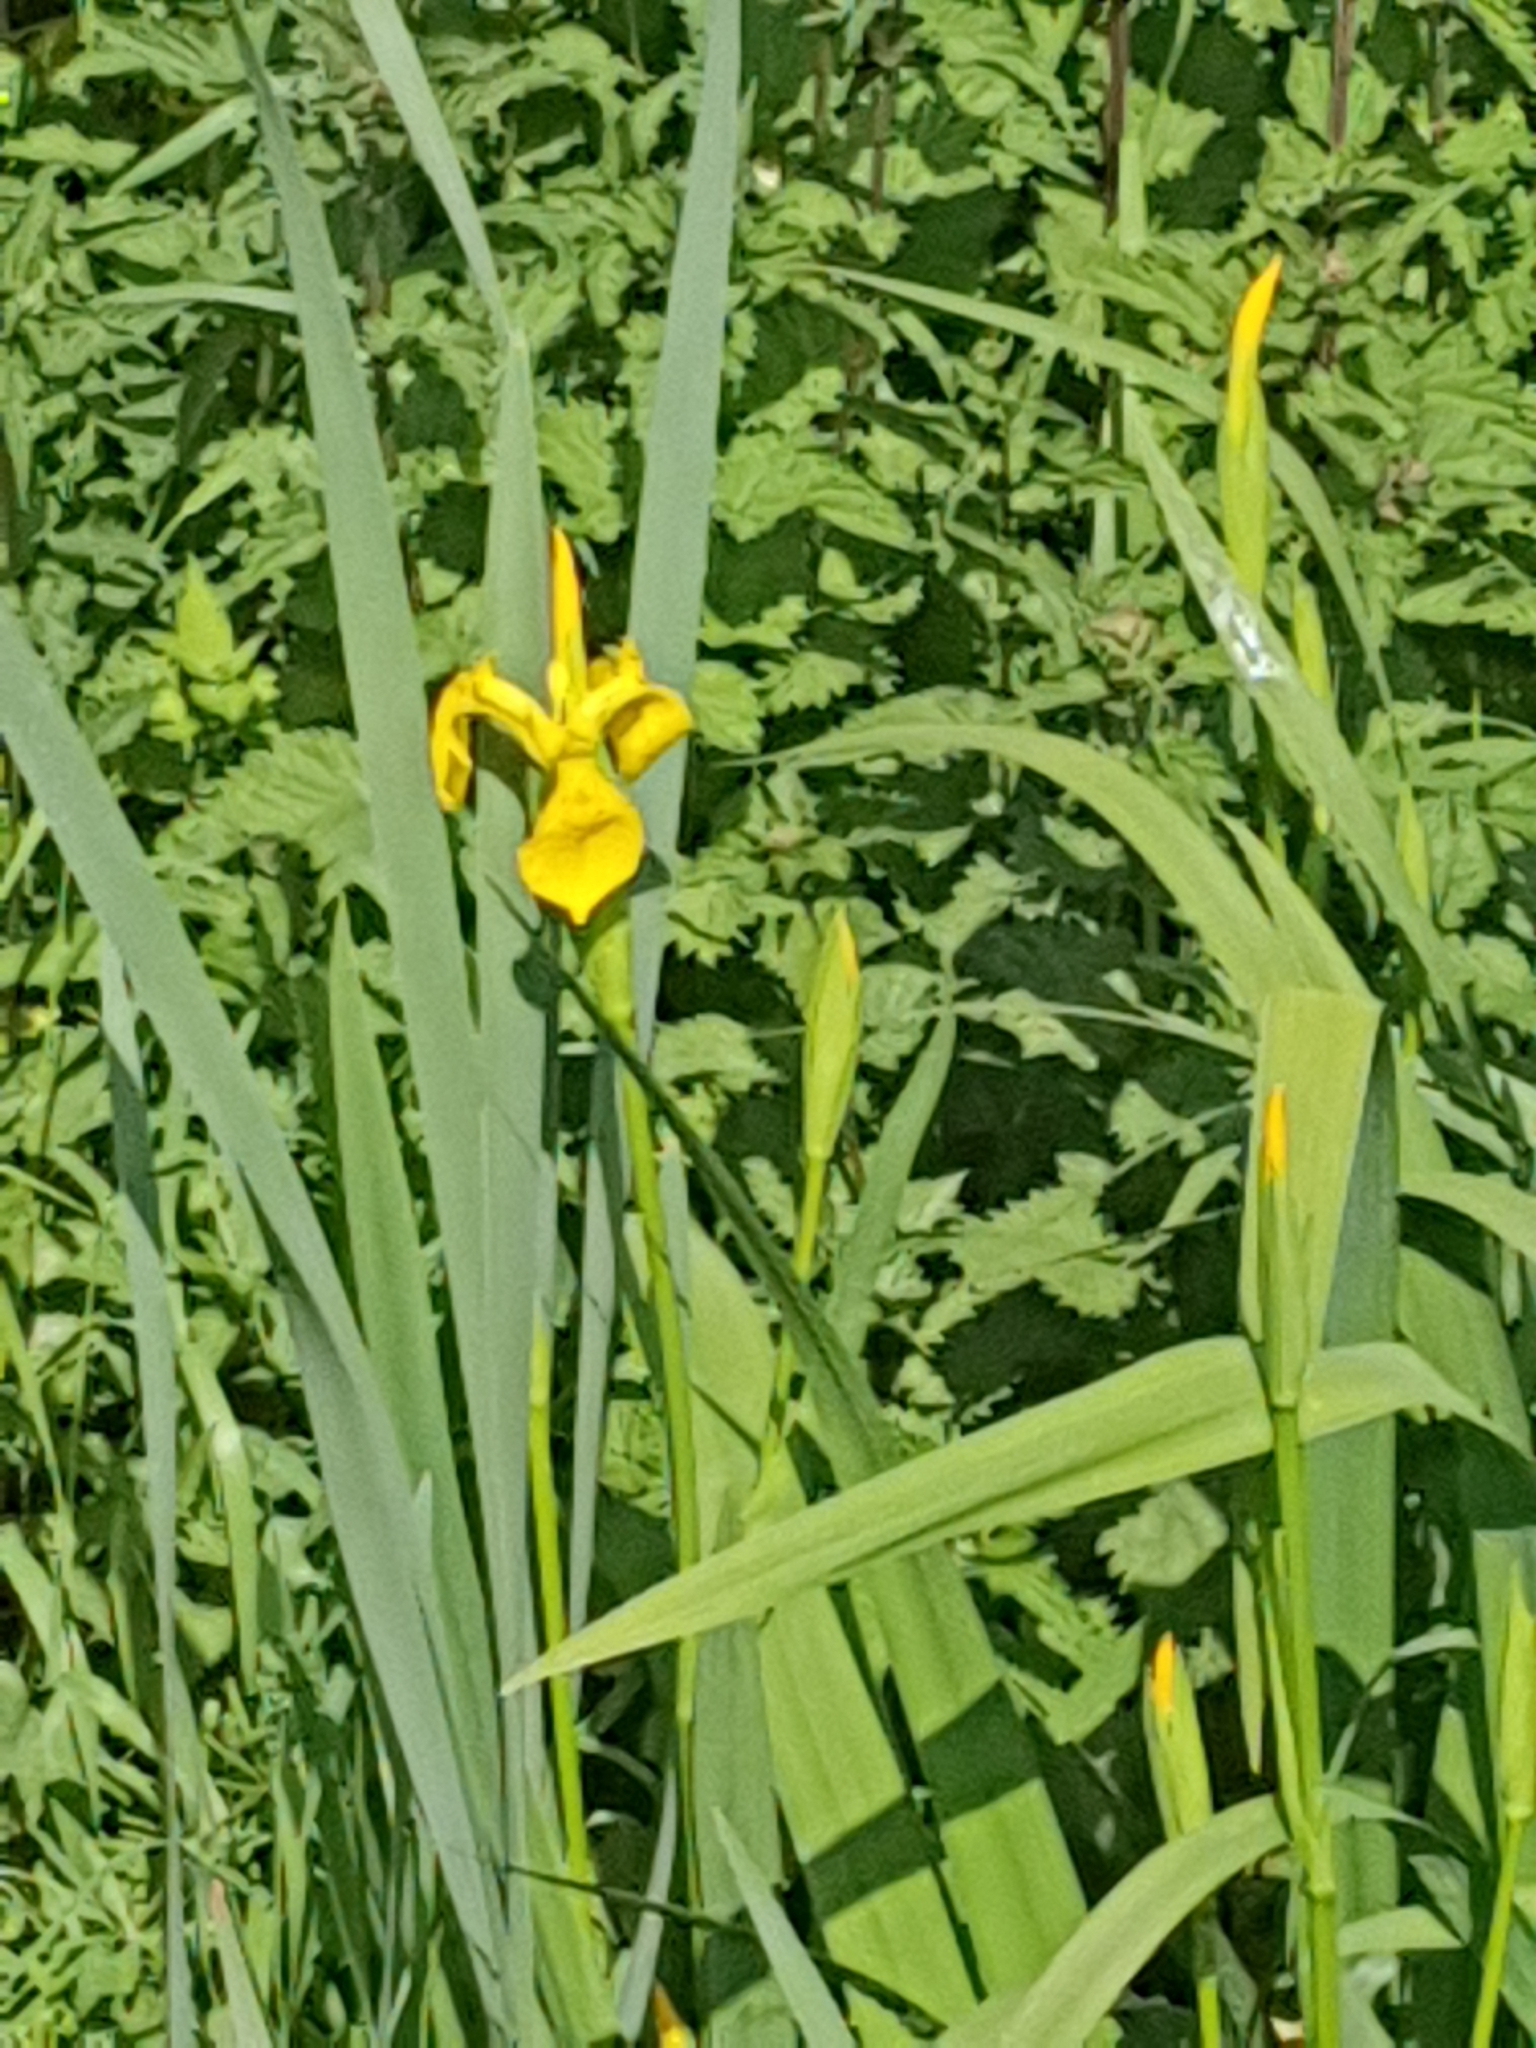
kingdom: Plantae
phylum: Tracheophyta
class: Liliopsida
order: Asparagales
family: Iridaceae
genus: Iris
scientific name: Iris pseudacorus
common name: Yellow flag
